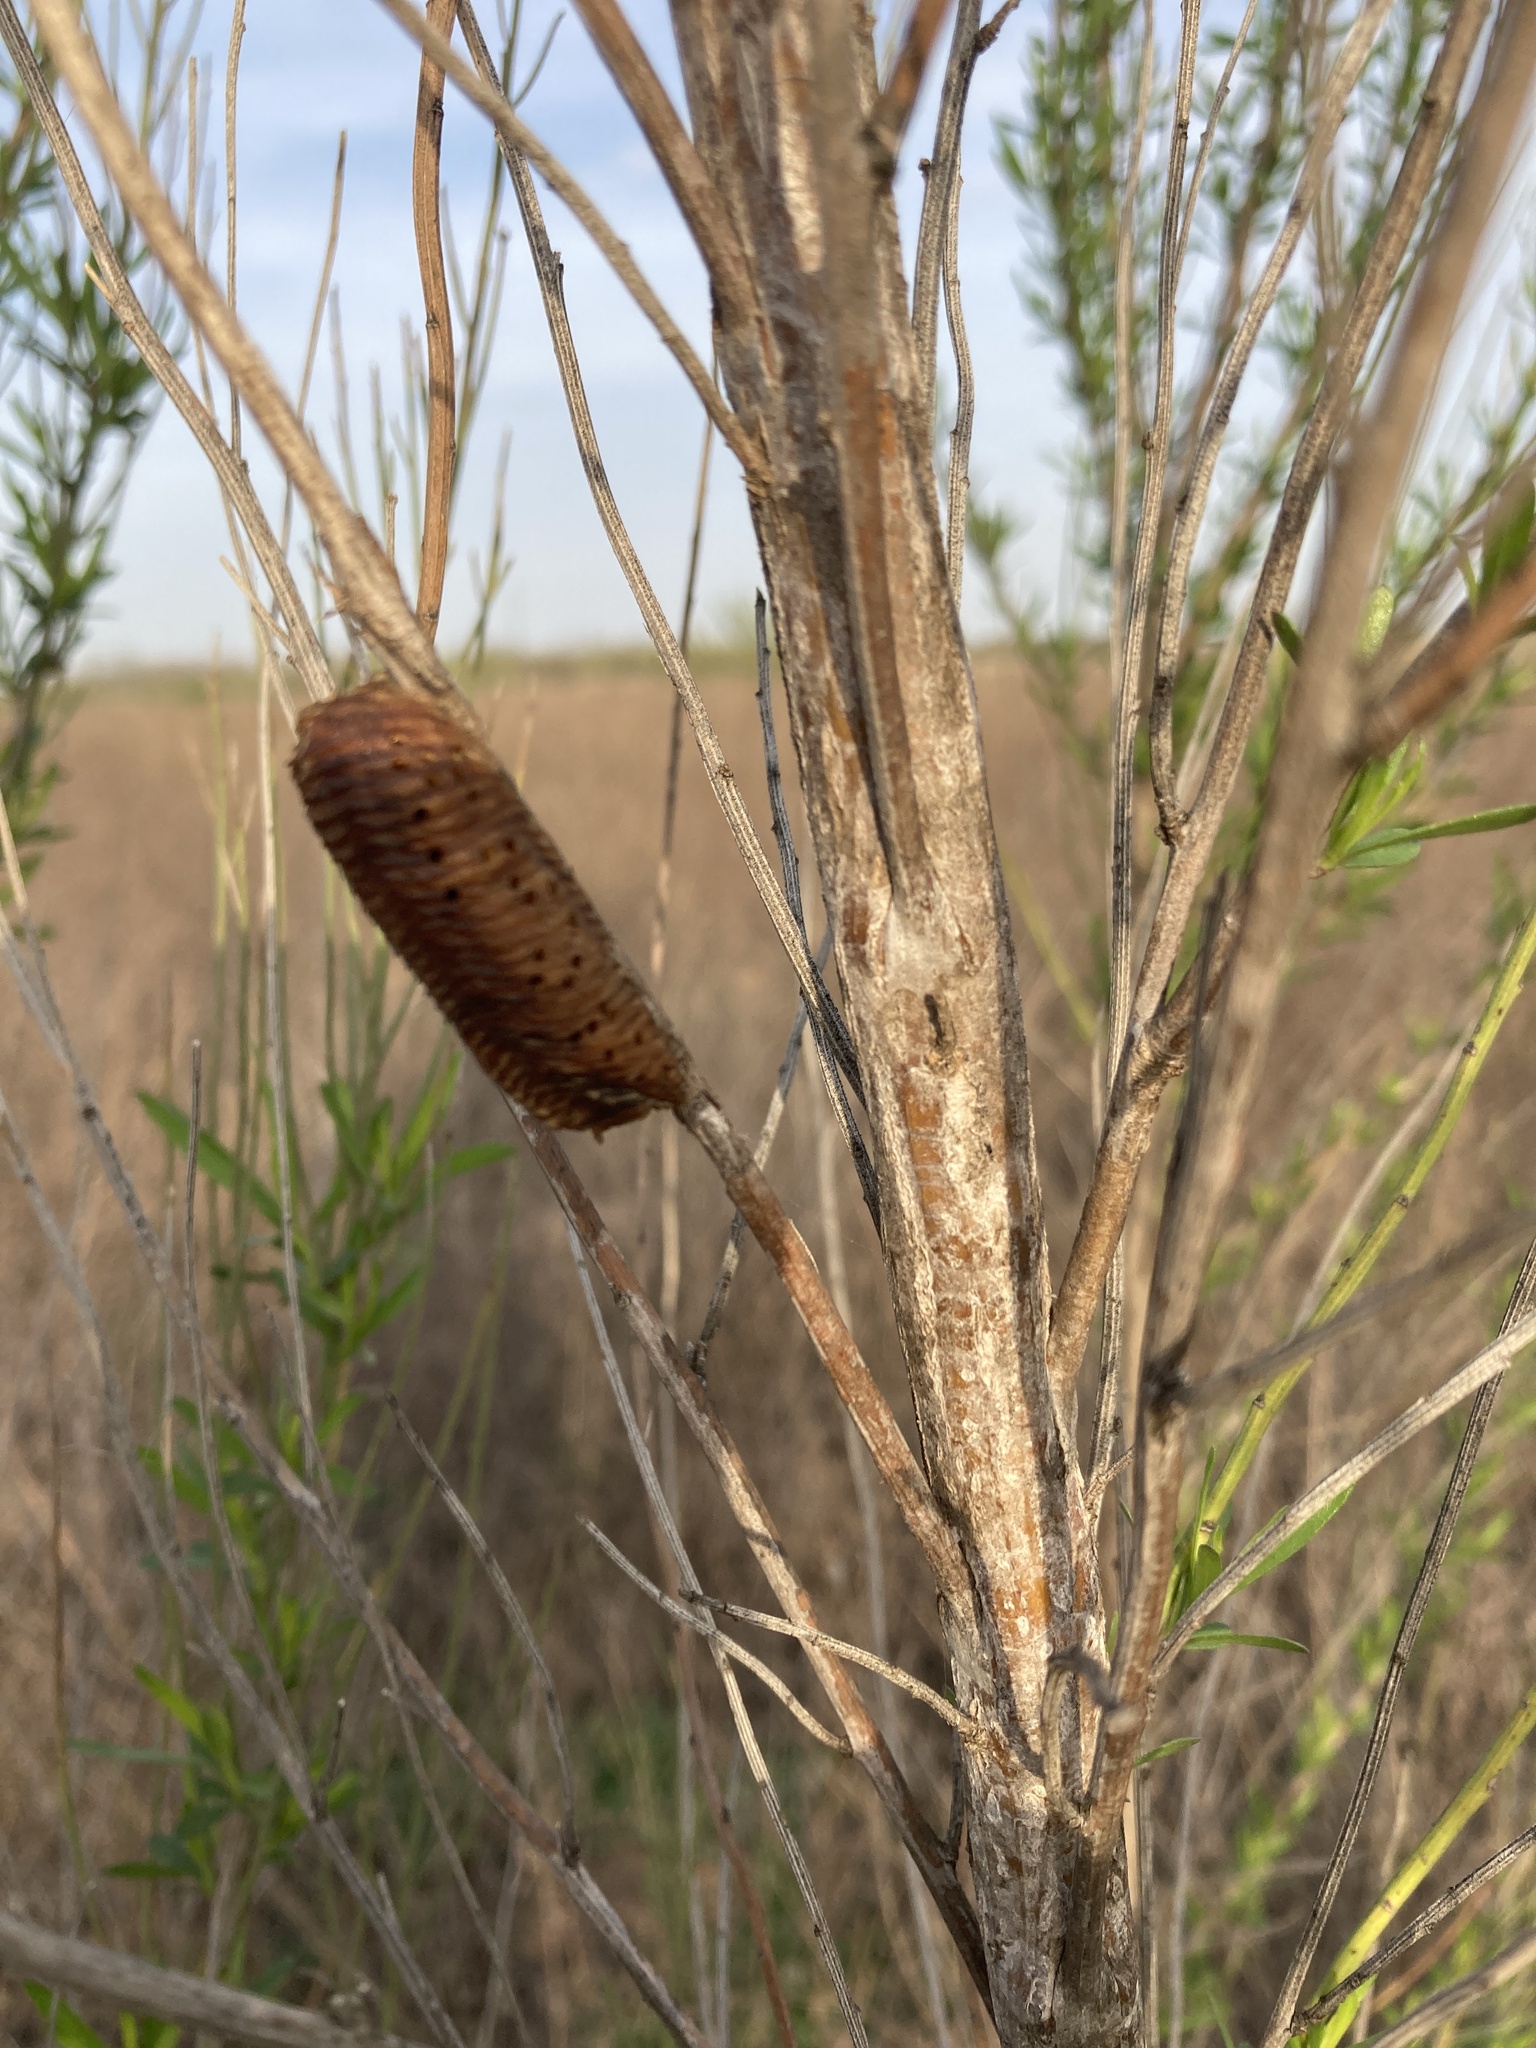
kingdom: Animalia
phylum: Arthropoda
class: Insecta
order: Mantodea
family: Mantidae
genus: Stagmomantis
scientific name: Stagmomantis limbata
